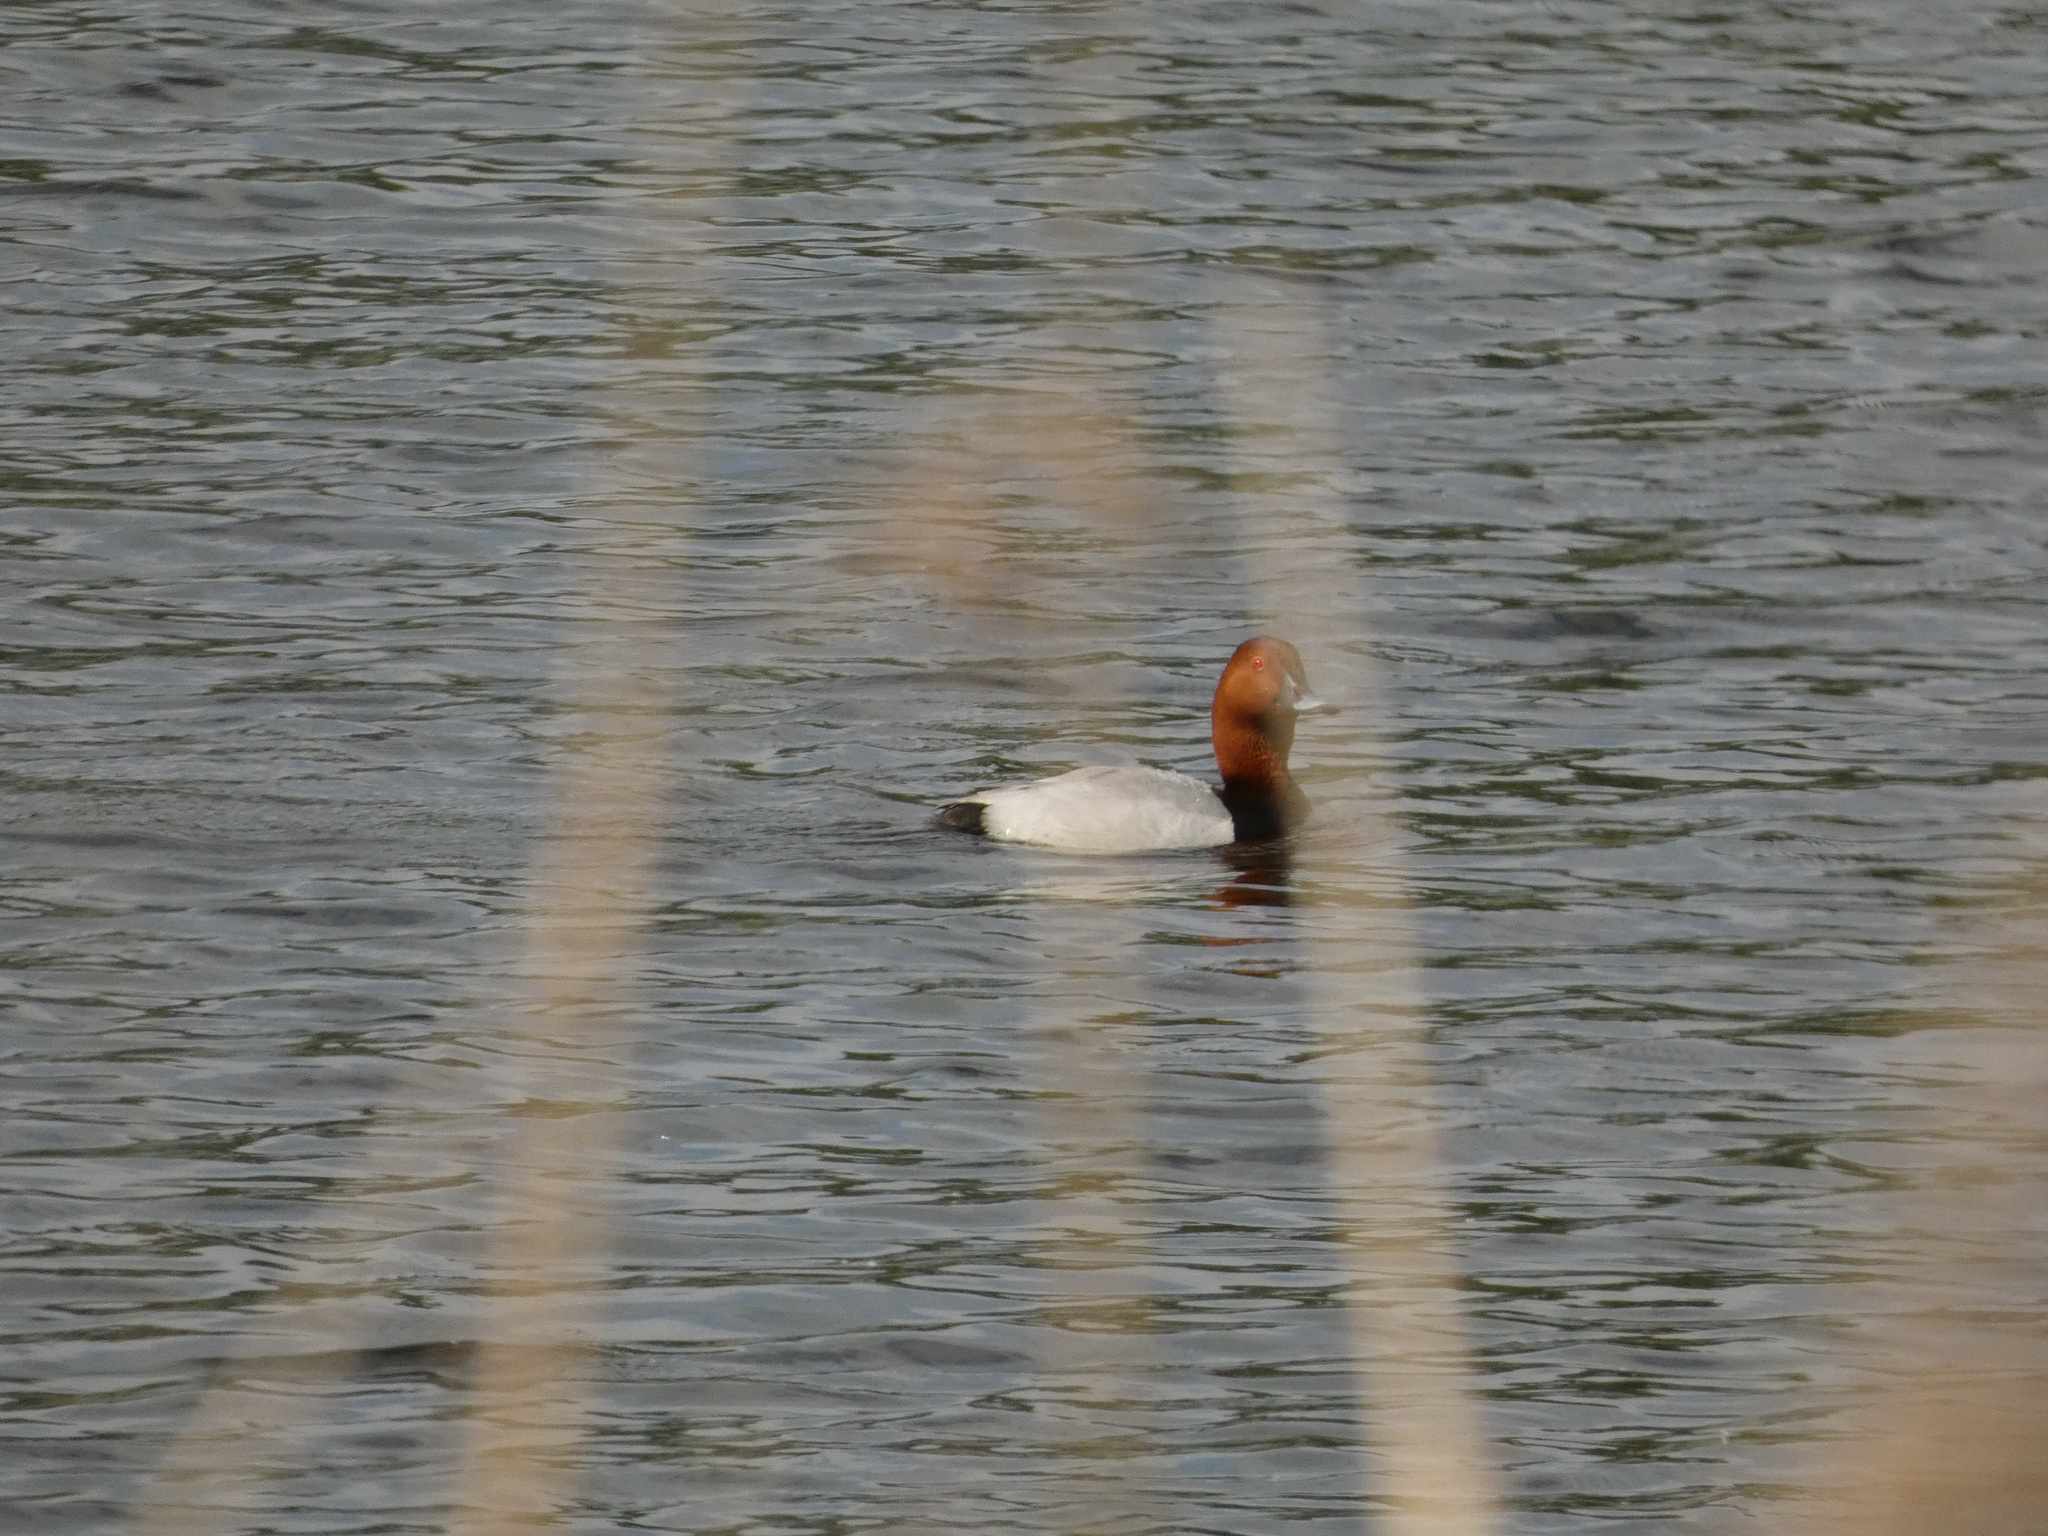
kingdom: Animalia
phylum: Chordata
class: Aves
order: Anseriformes
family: Anatidae
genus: Aythya
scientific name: Aythya ferina
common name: Common pochard
